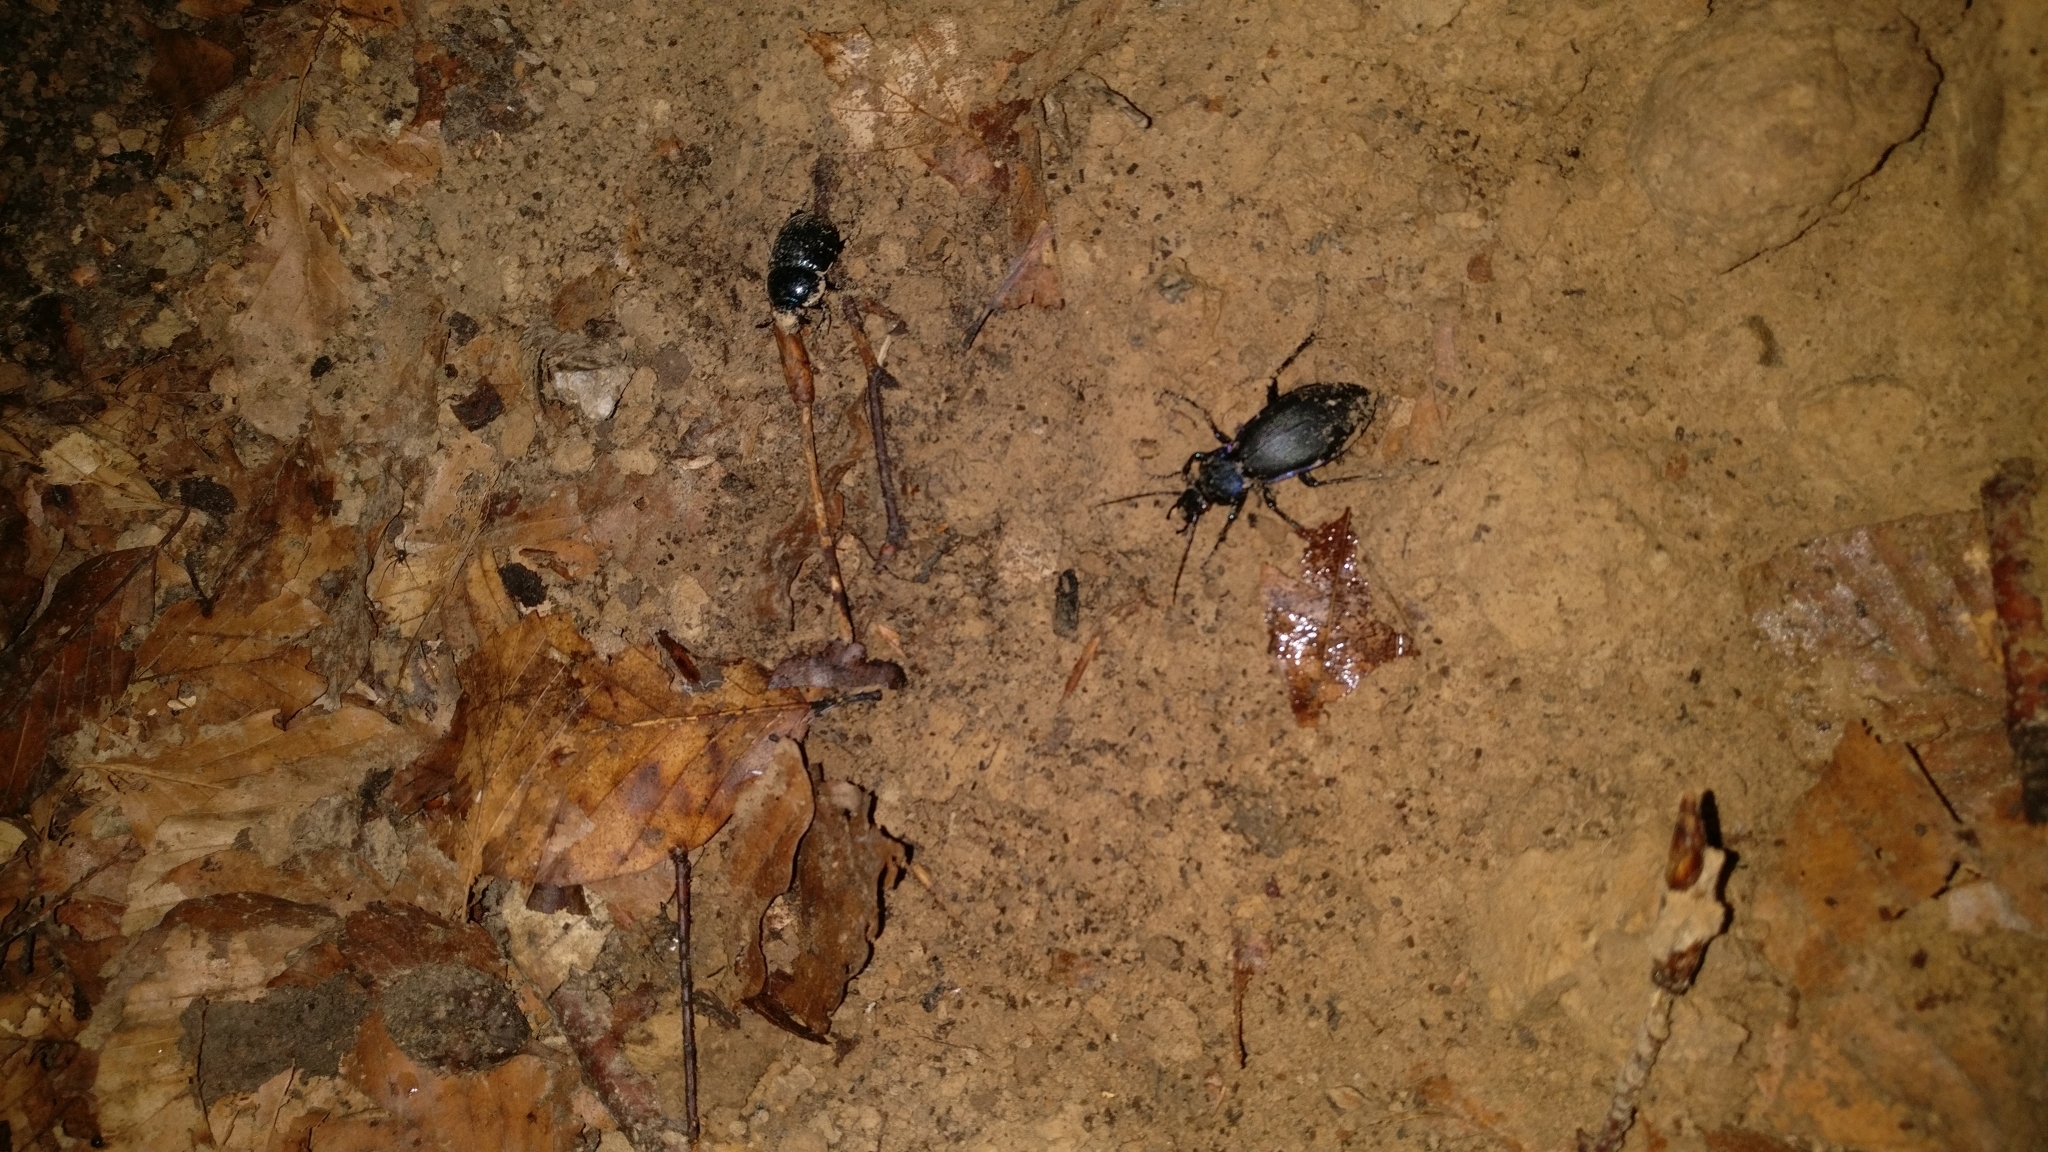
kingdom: Animalia
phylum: Arthropoda
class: Insecta
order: Coleoptera
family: Carabidae
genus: Carabus
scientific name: Carabus purpurascens
